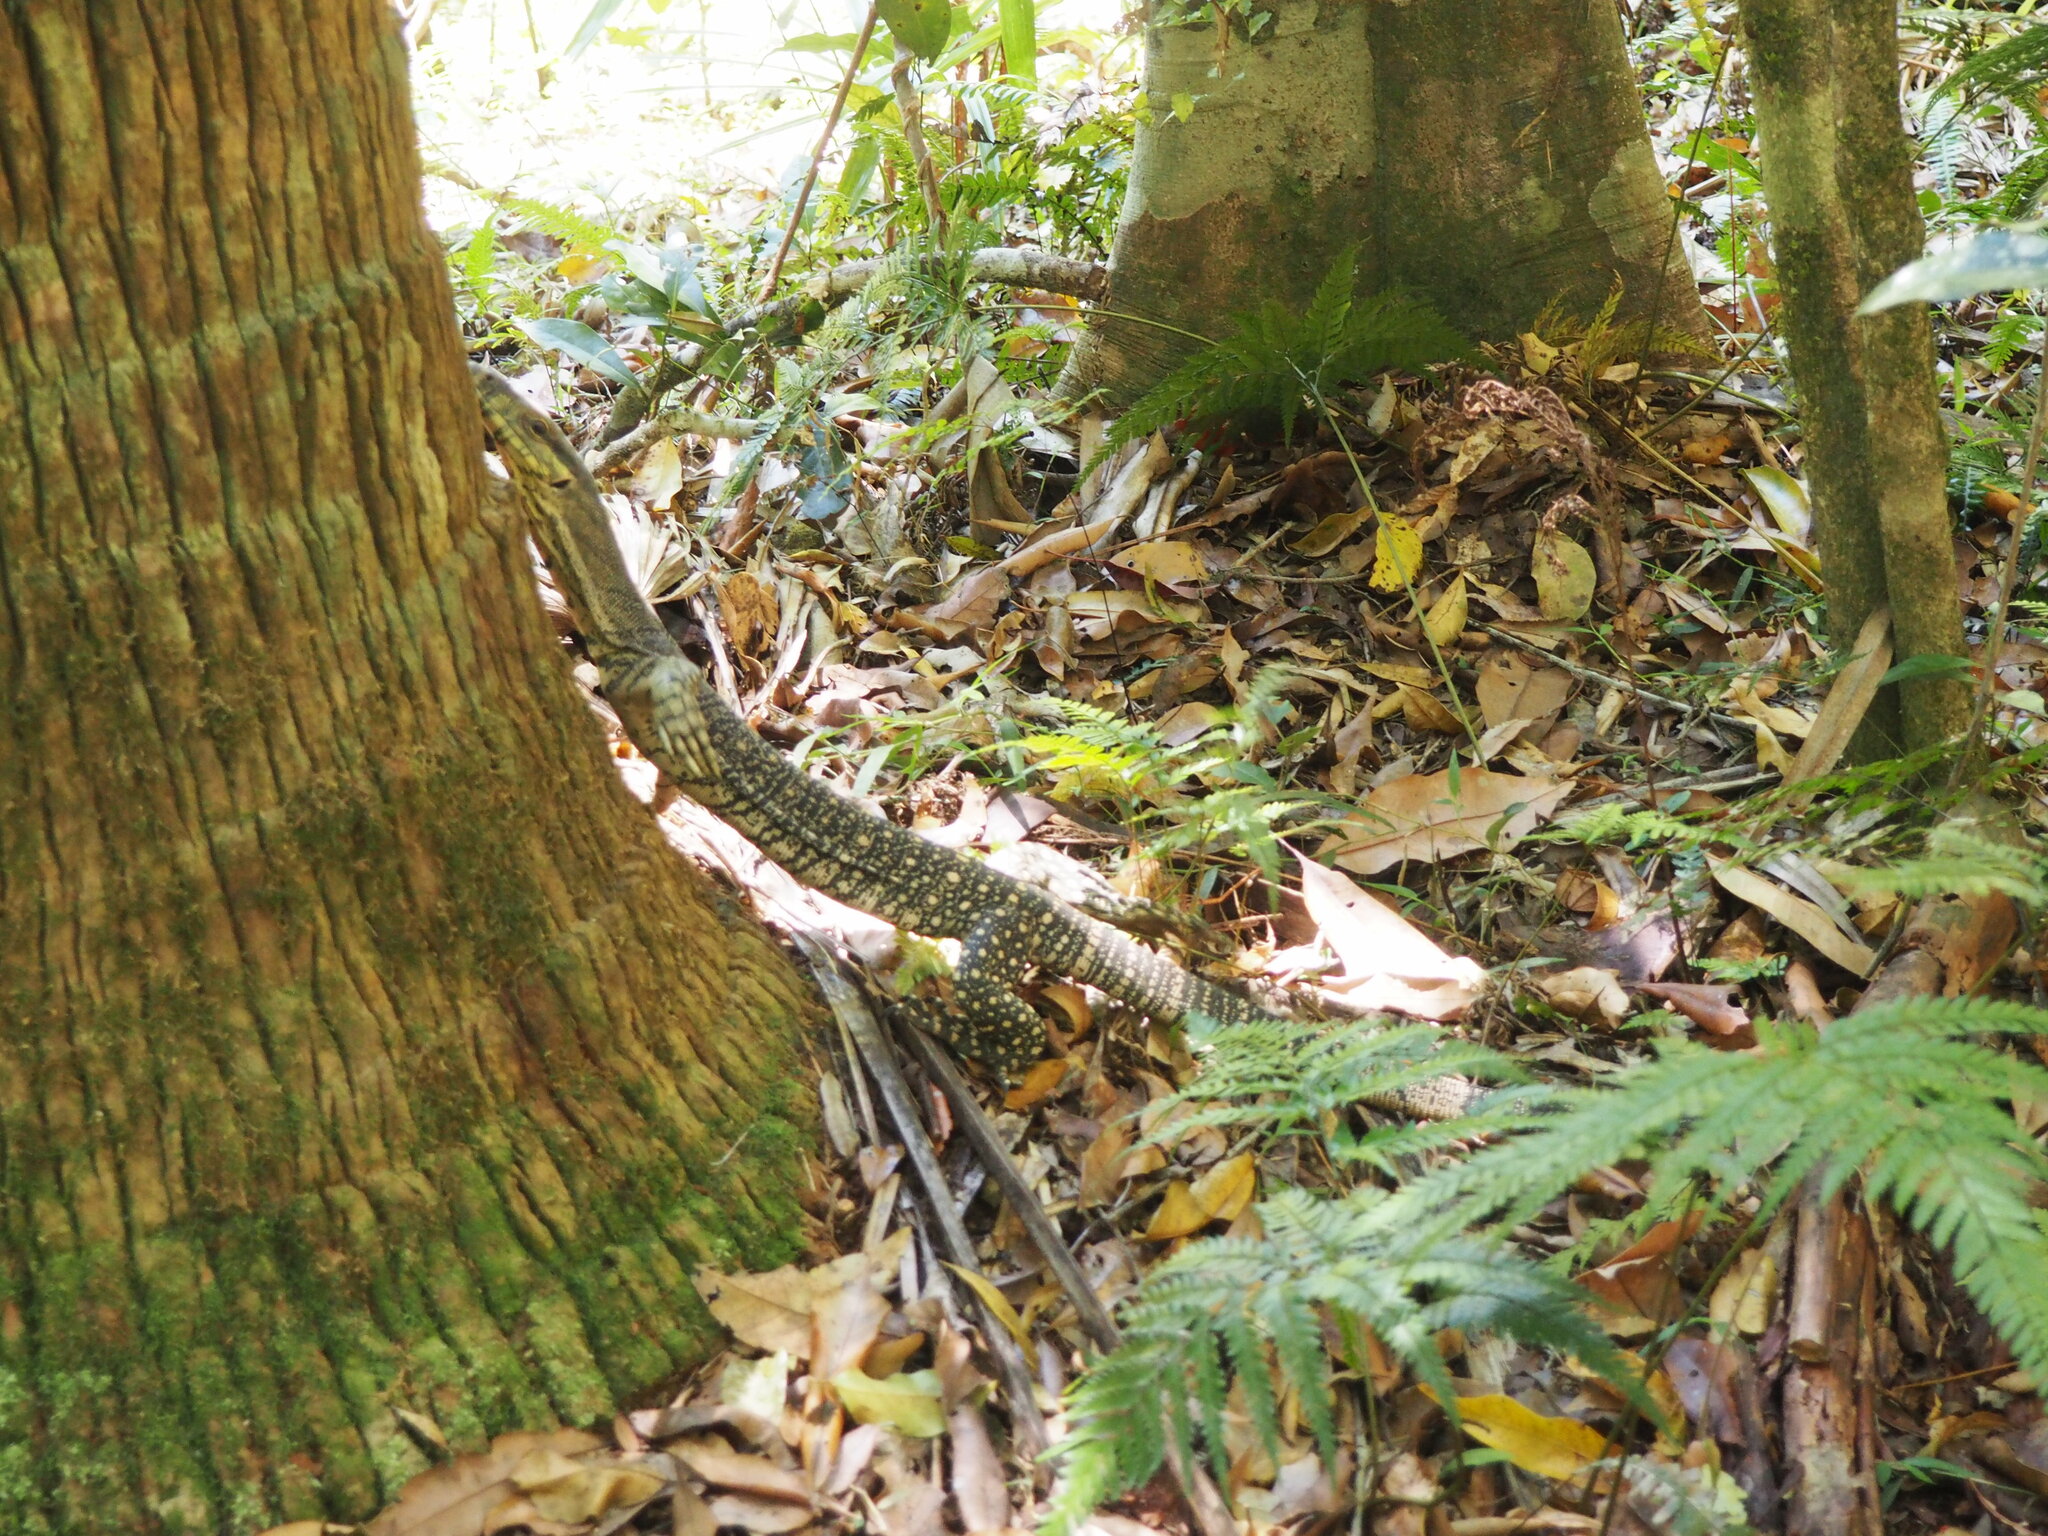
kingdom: Animalia
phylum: Chordata
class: Squamata
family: Varanidae
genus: Varanus
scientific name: Varanus varius
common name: Lace monitor
